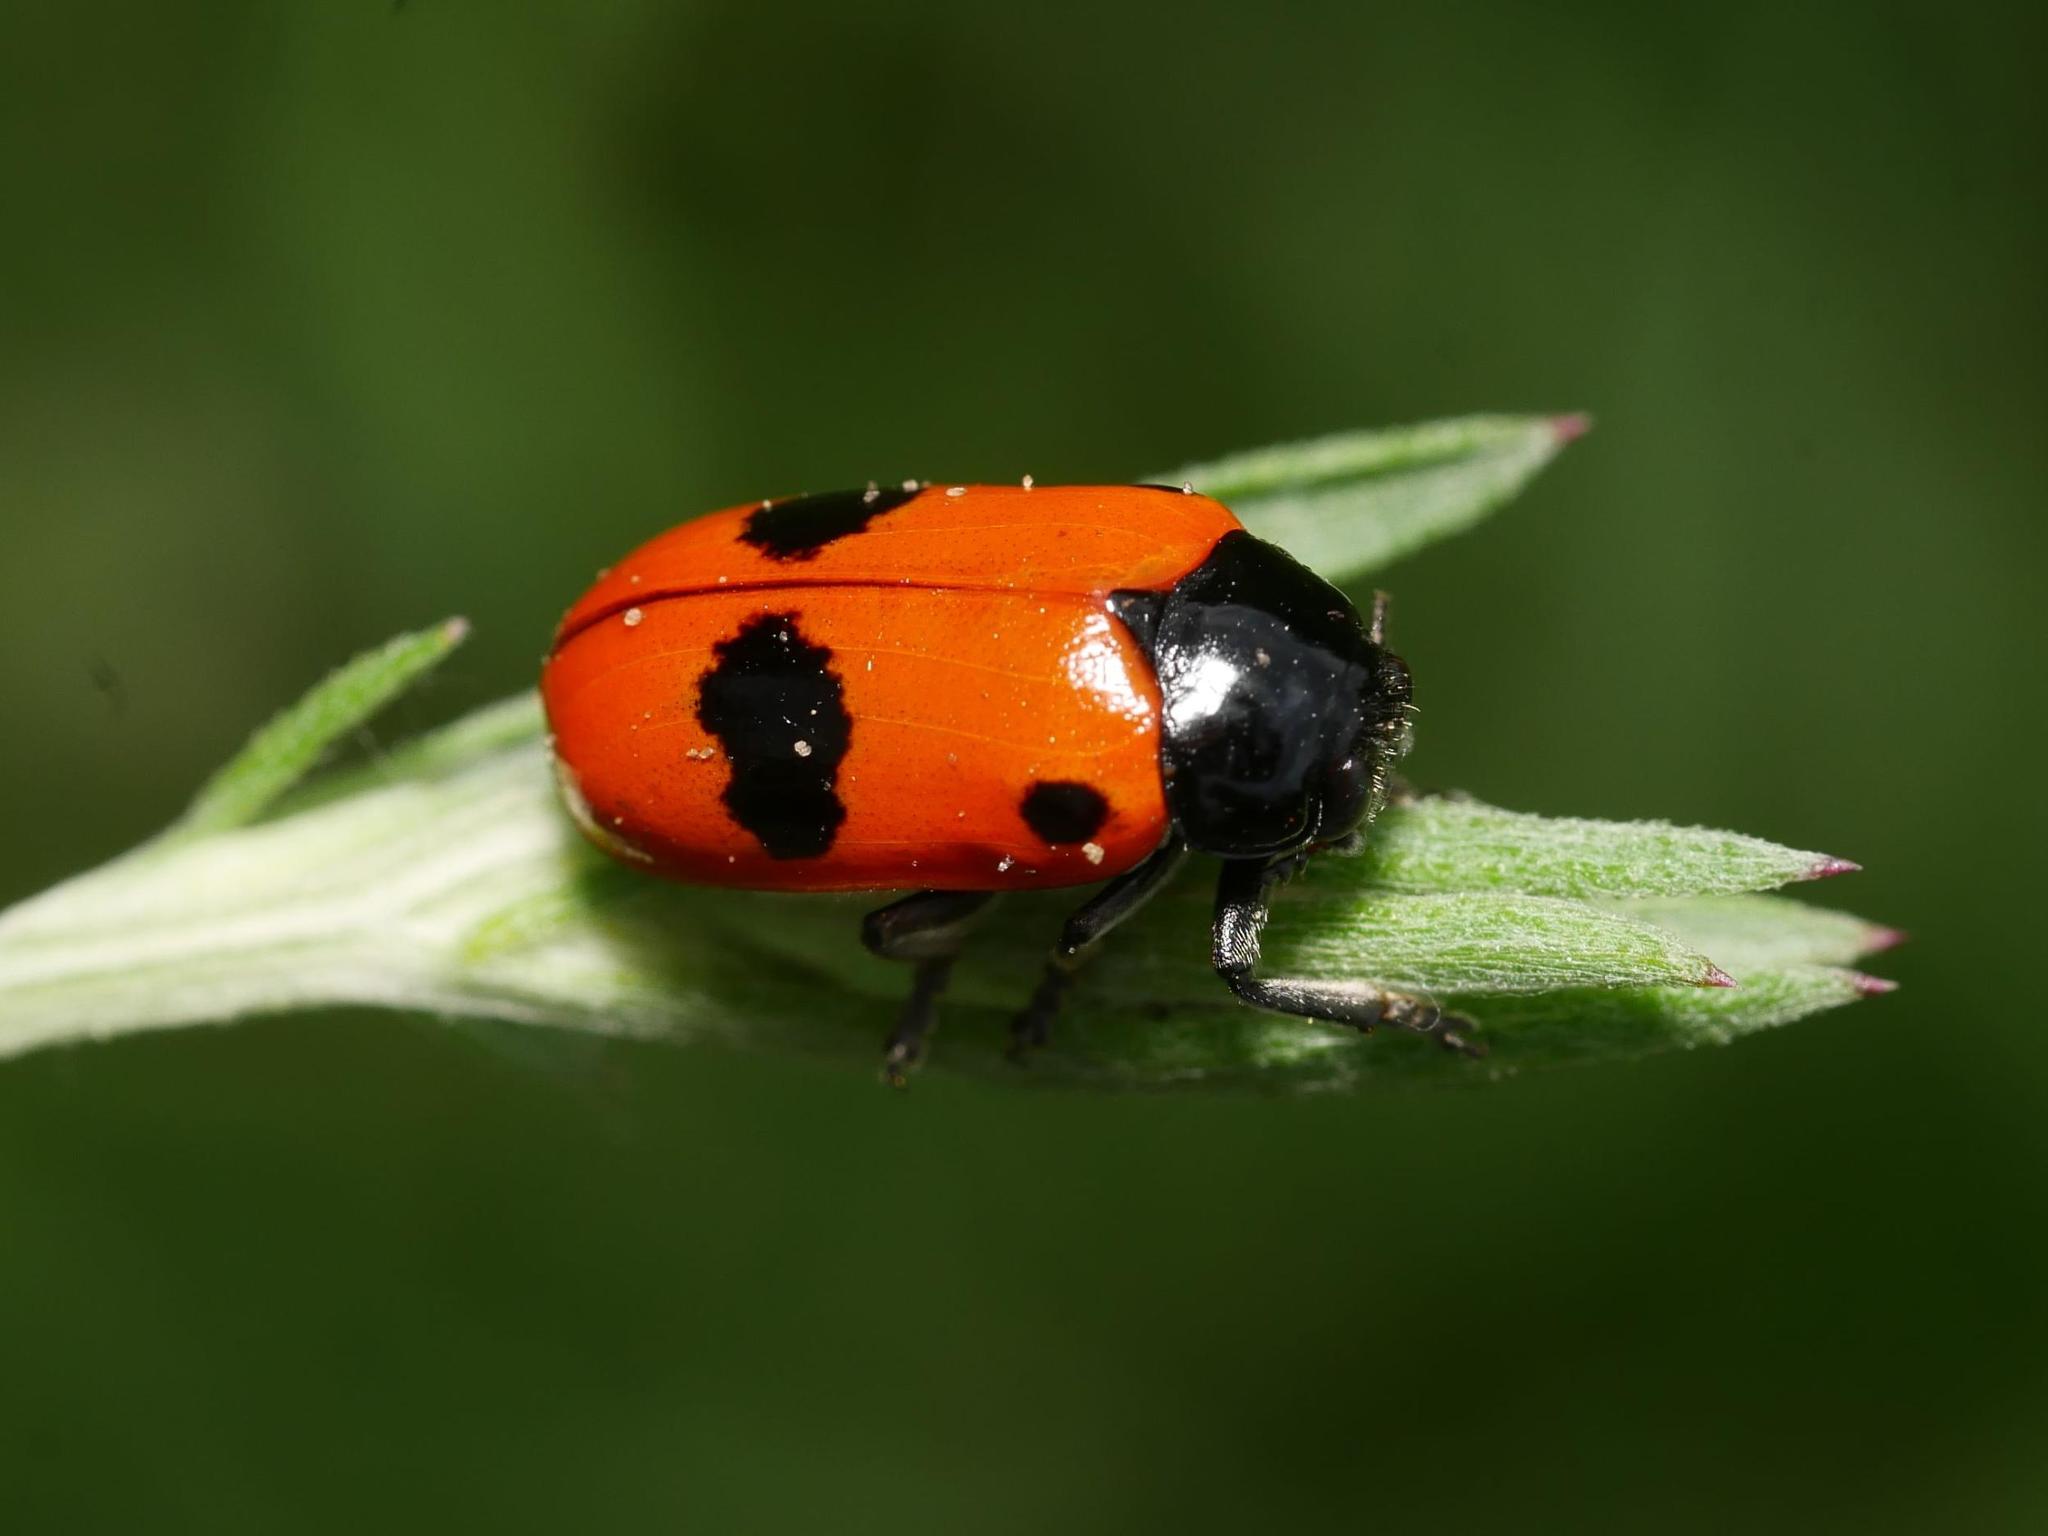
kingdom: Animalia
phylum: Arthropoda
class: Insecta
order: Coleoptera
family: Chrysomelidae
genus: Clytra
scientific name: Clytra laeviuscula
